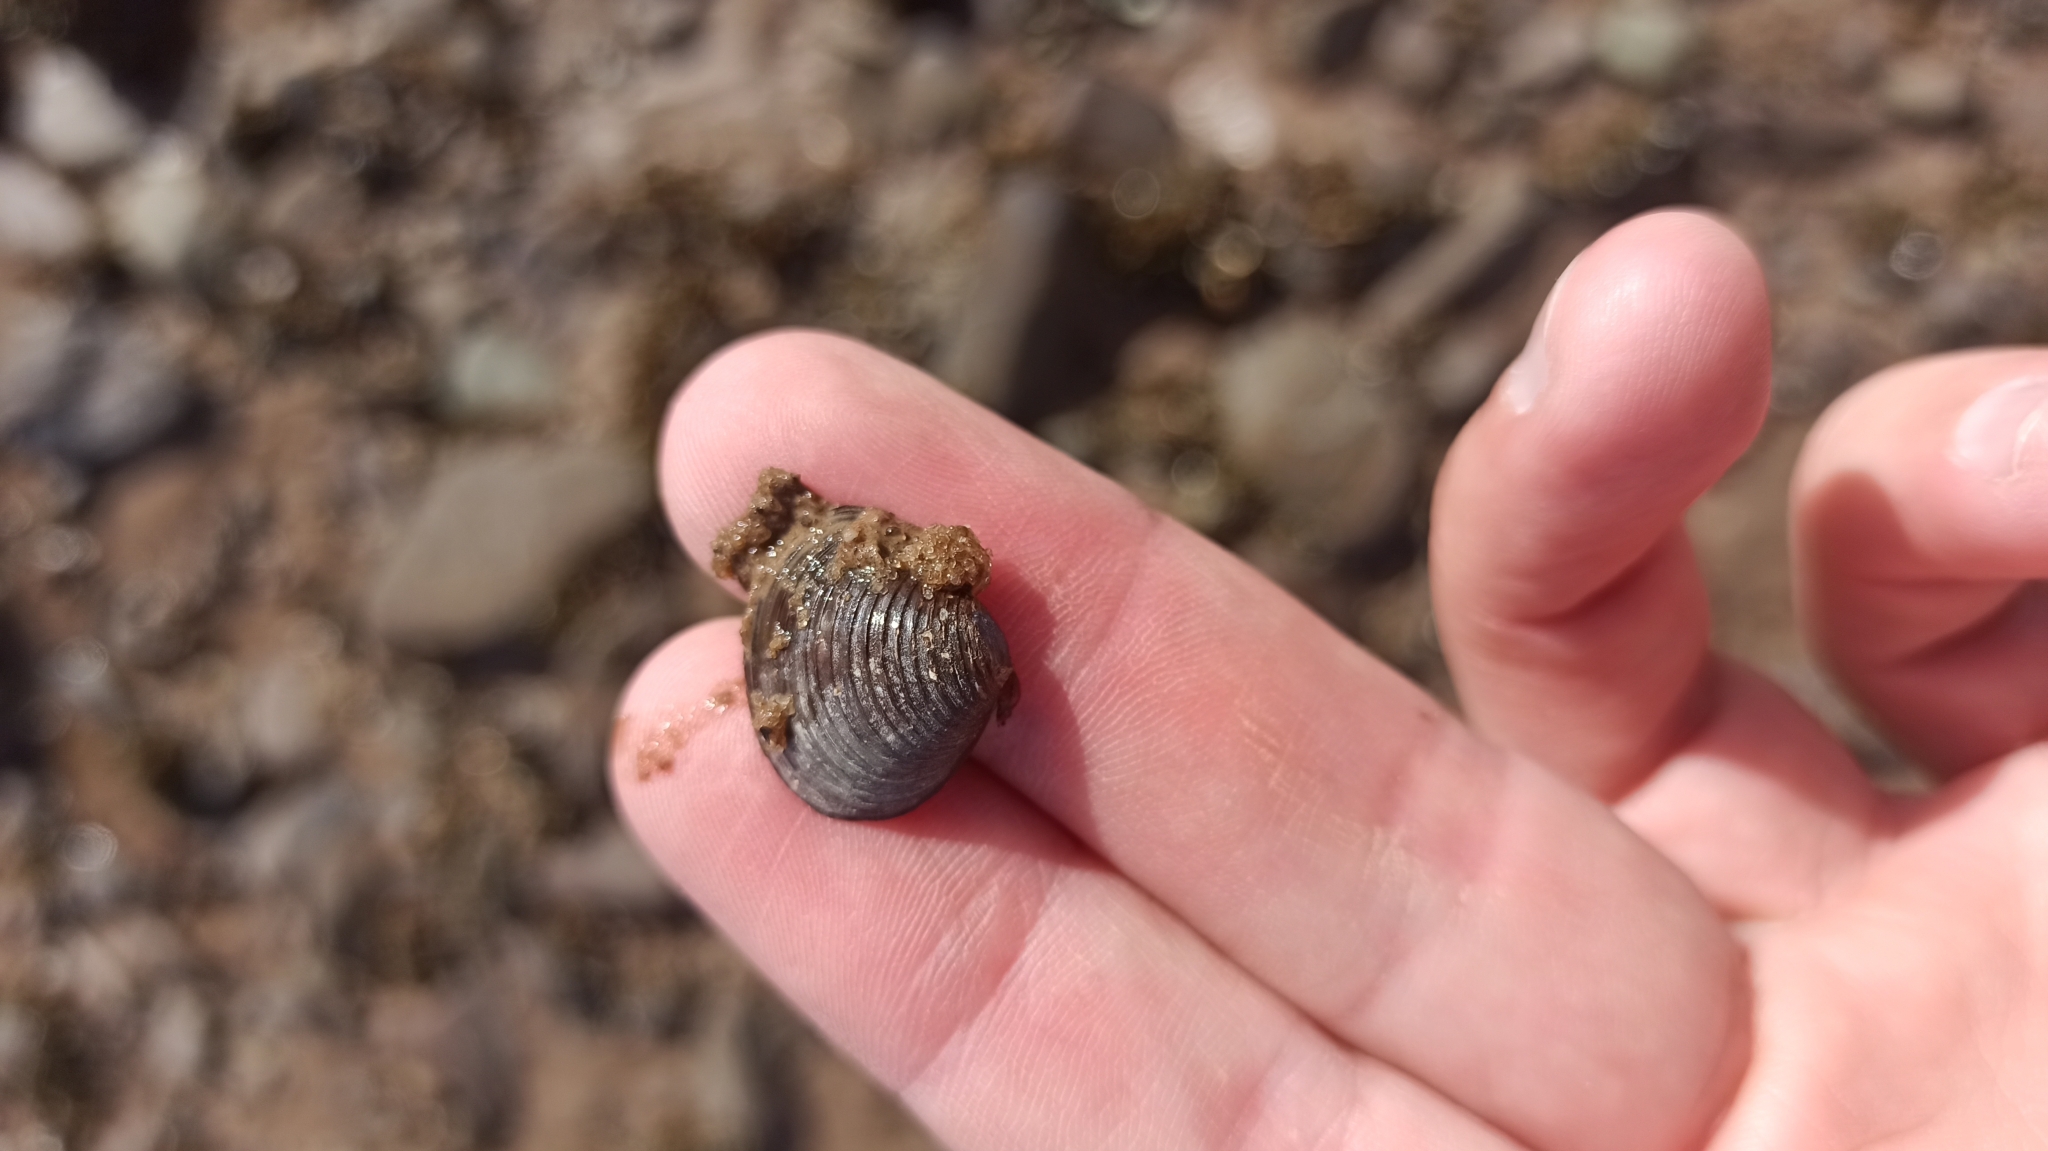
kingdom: Animalia
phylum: Mollusca
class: Bivalvia
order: Venerida
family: Cyrenidae
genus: Corbicula
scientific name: Corbicula fluminea
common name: Asian clam
